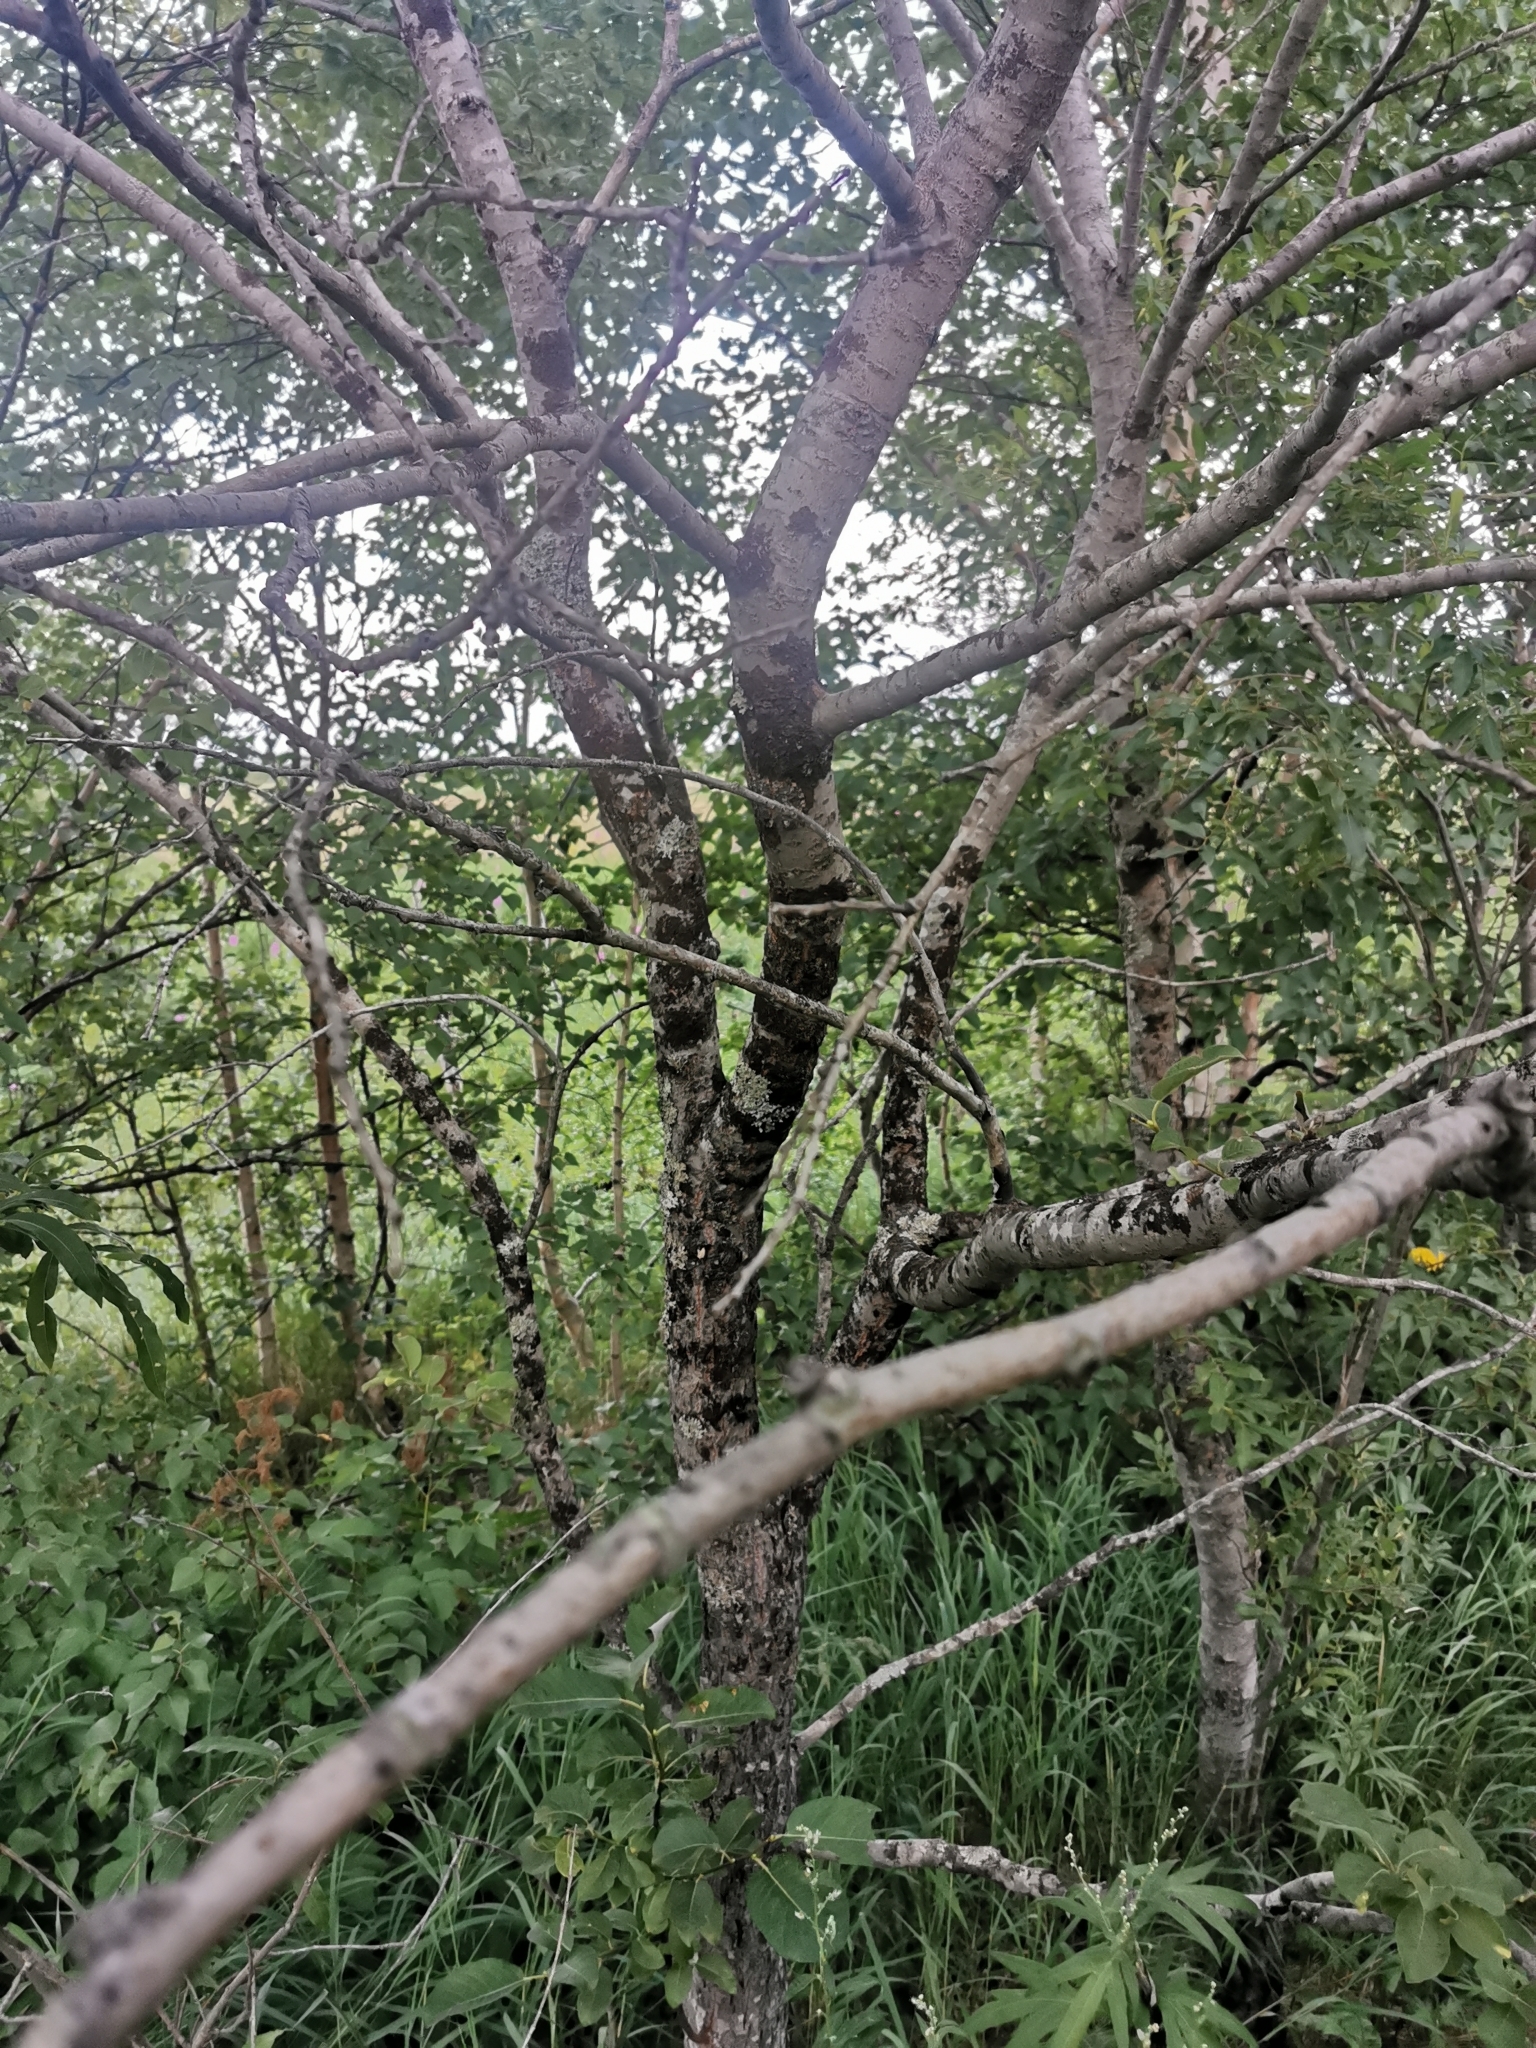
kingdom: Plantae
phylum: Tracheophyta
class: Magnoliopsida
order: Malpighiales
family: Salicaceae
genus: Salix
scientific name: Salix caprea
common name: Goat willow
